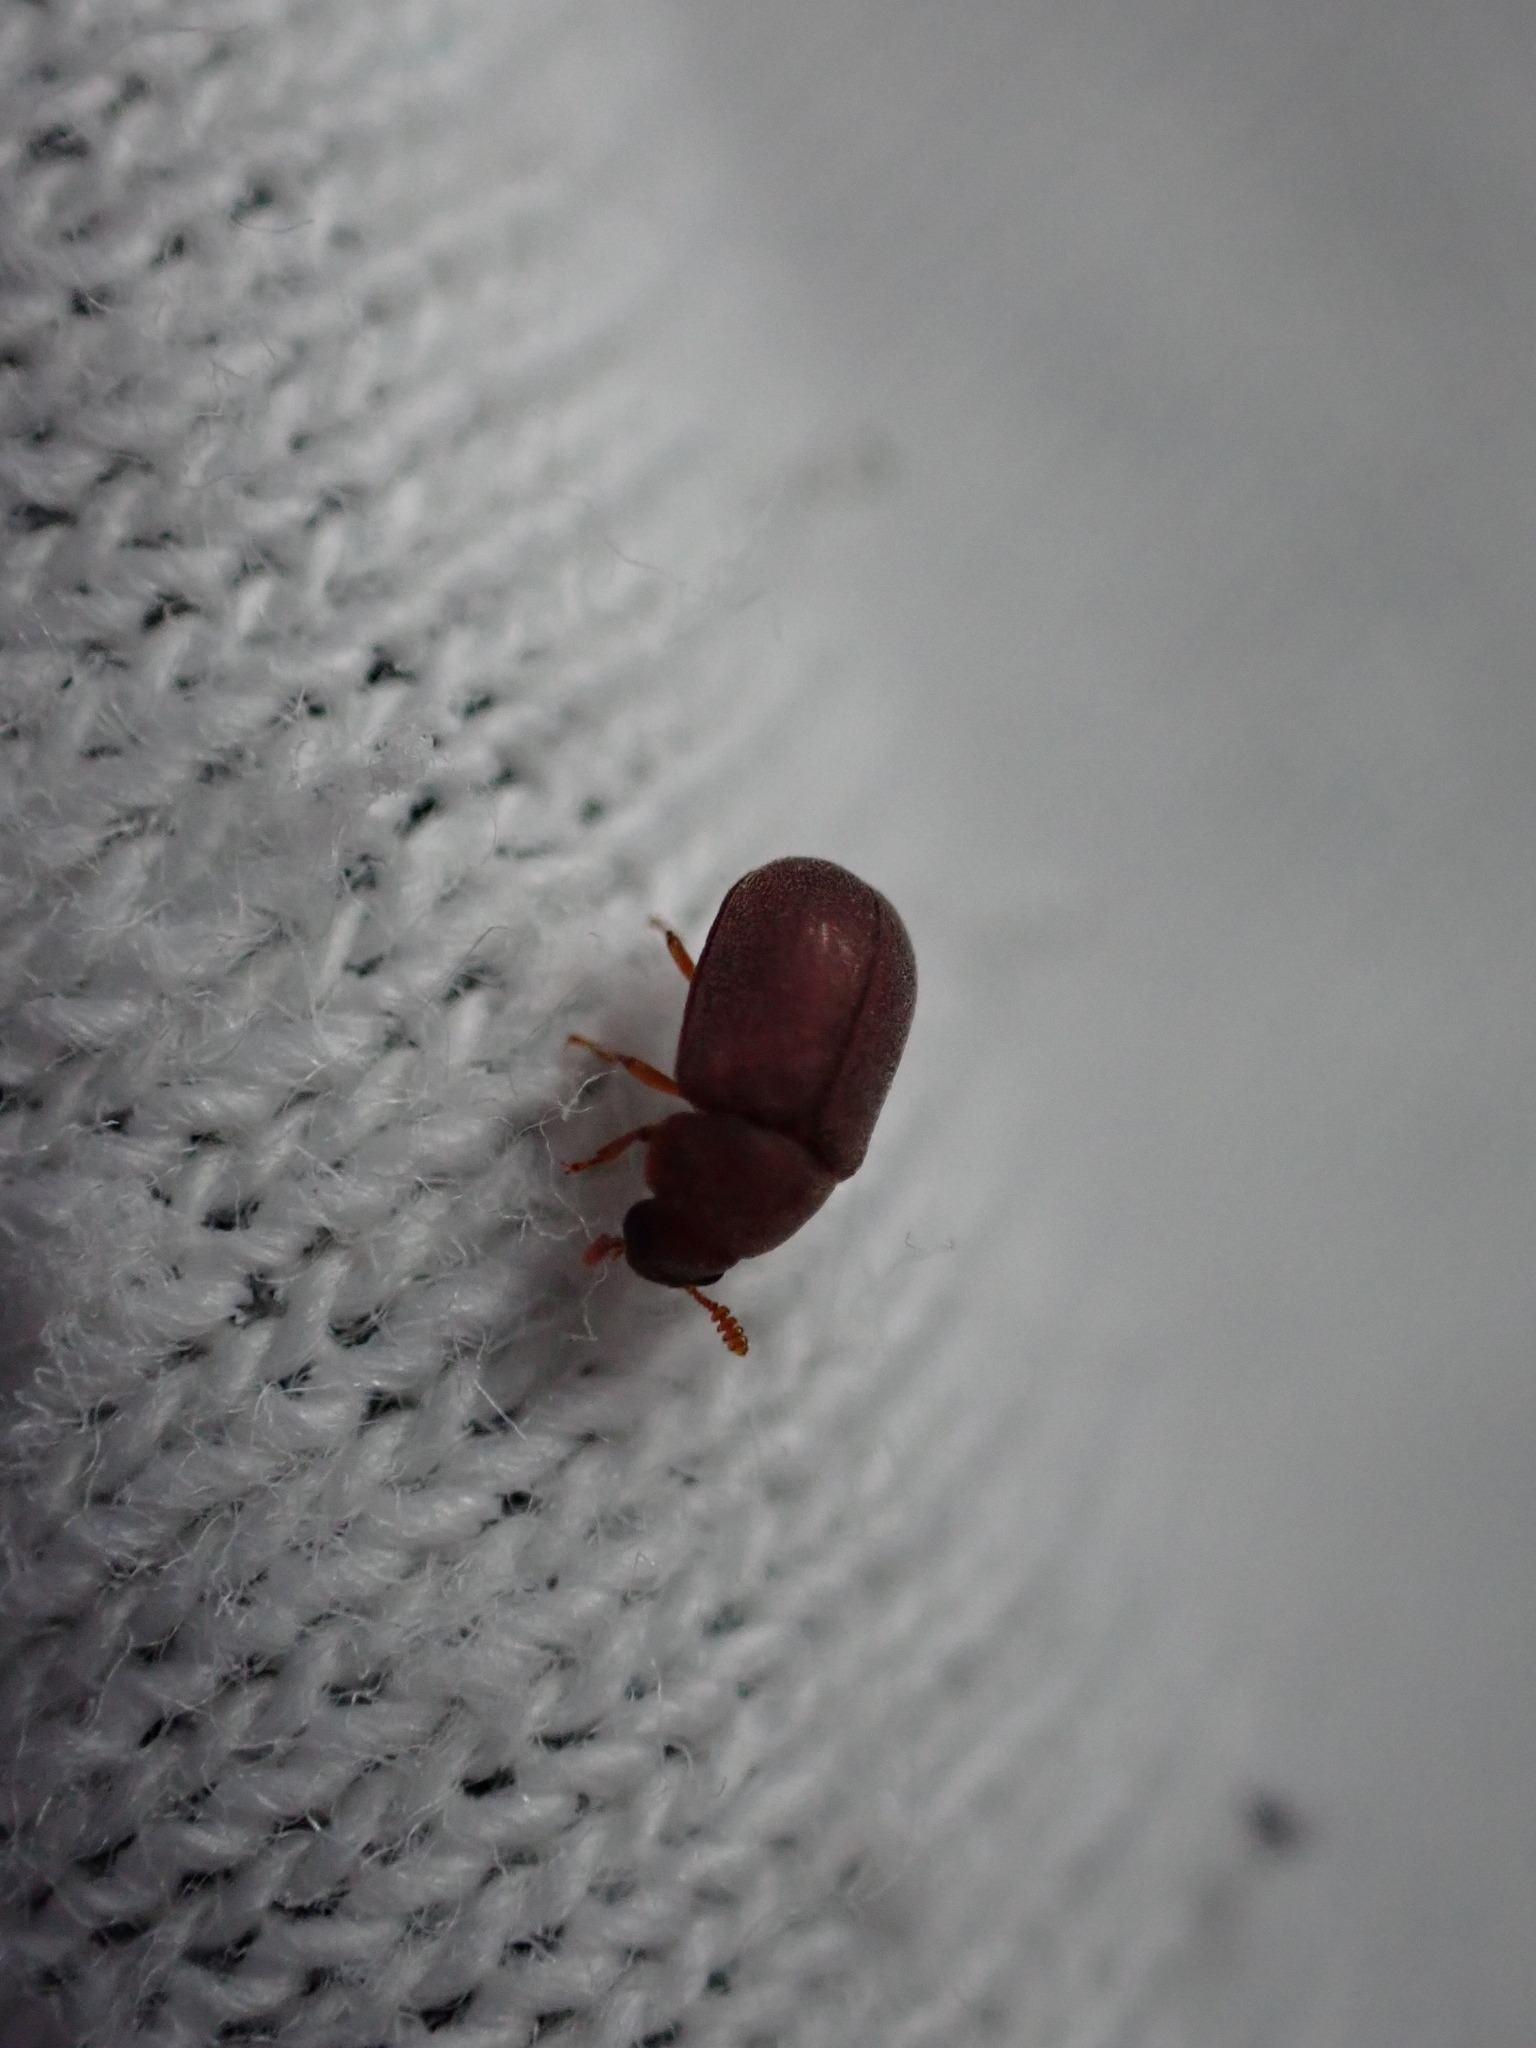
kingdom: Animalia
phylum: Arthropoda
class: Insecta
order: Coleoptera
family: Tenebrionidae
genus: Pentaphyllus
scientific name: Pentaphyllus chrysomeloides
